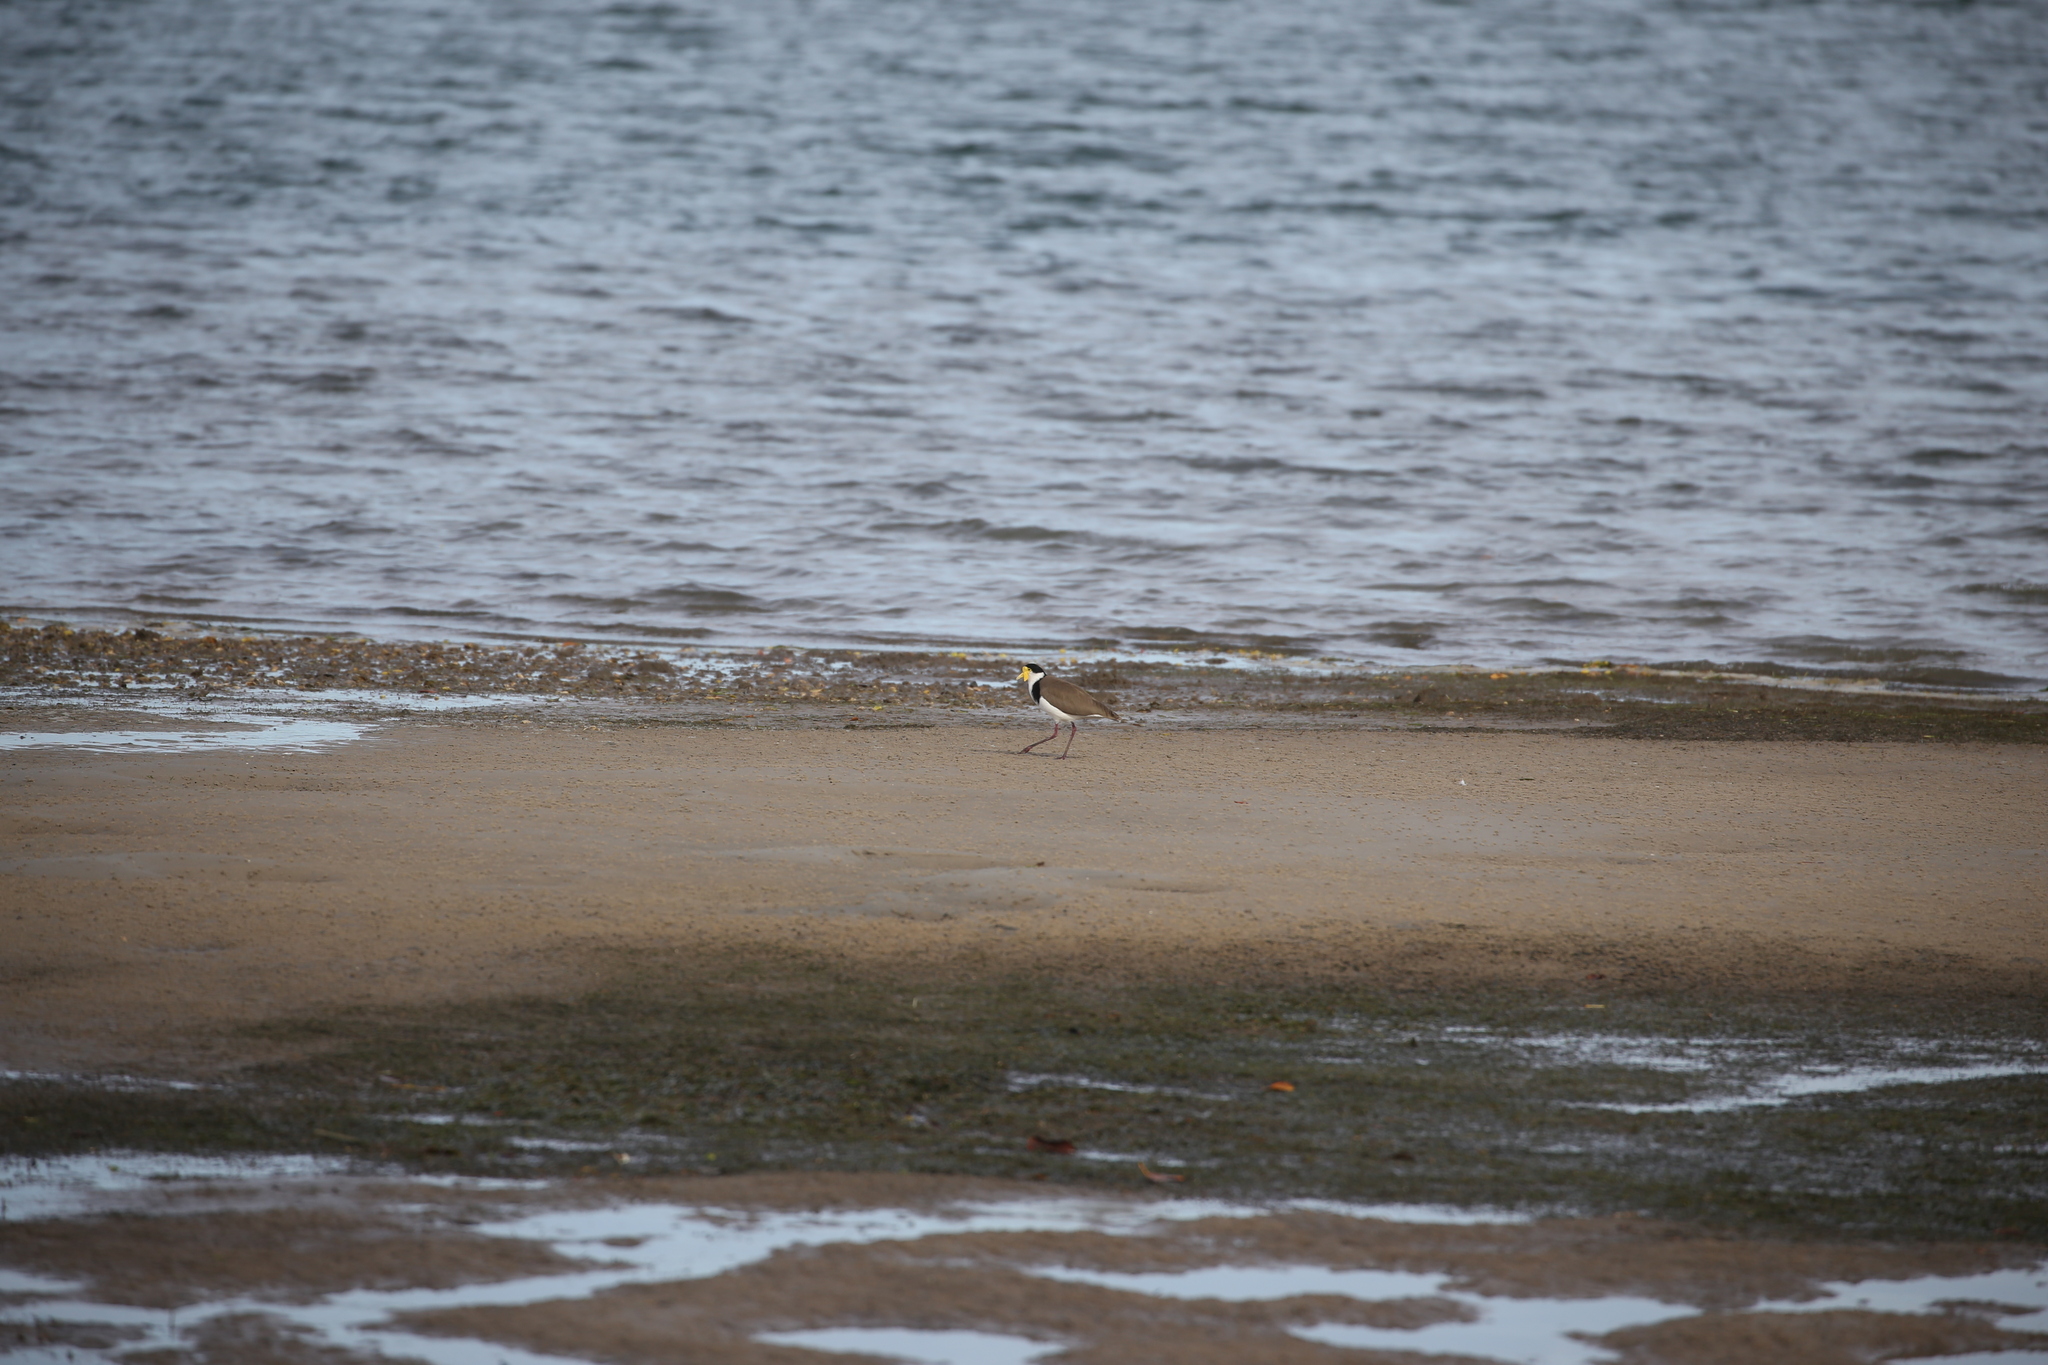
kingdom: Animalia
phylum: Chordata
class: Aves
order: Charadriiformes
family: Charadriidae
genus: Vanellus
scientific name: Vanellus miles
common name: Masked lapwing
